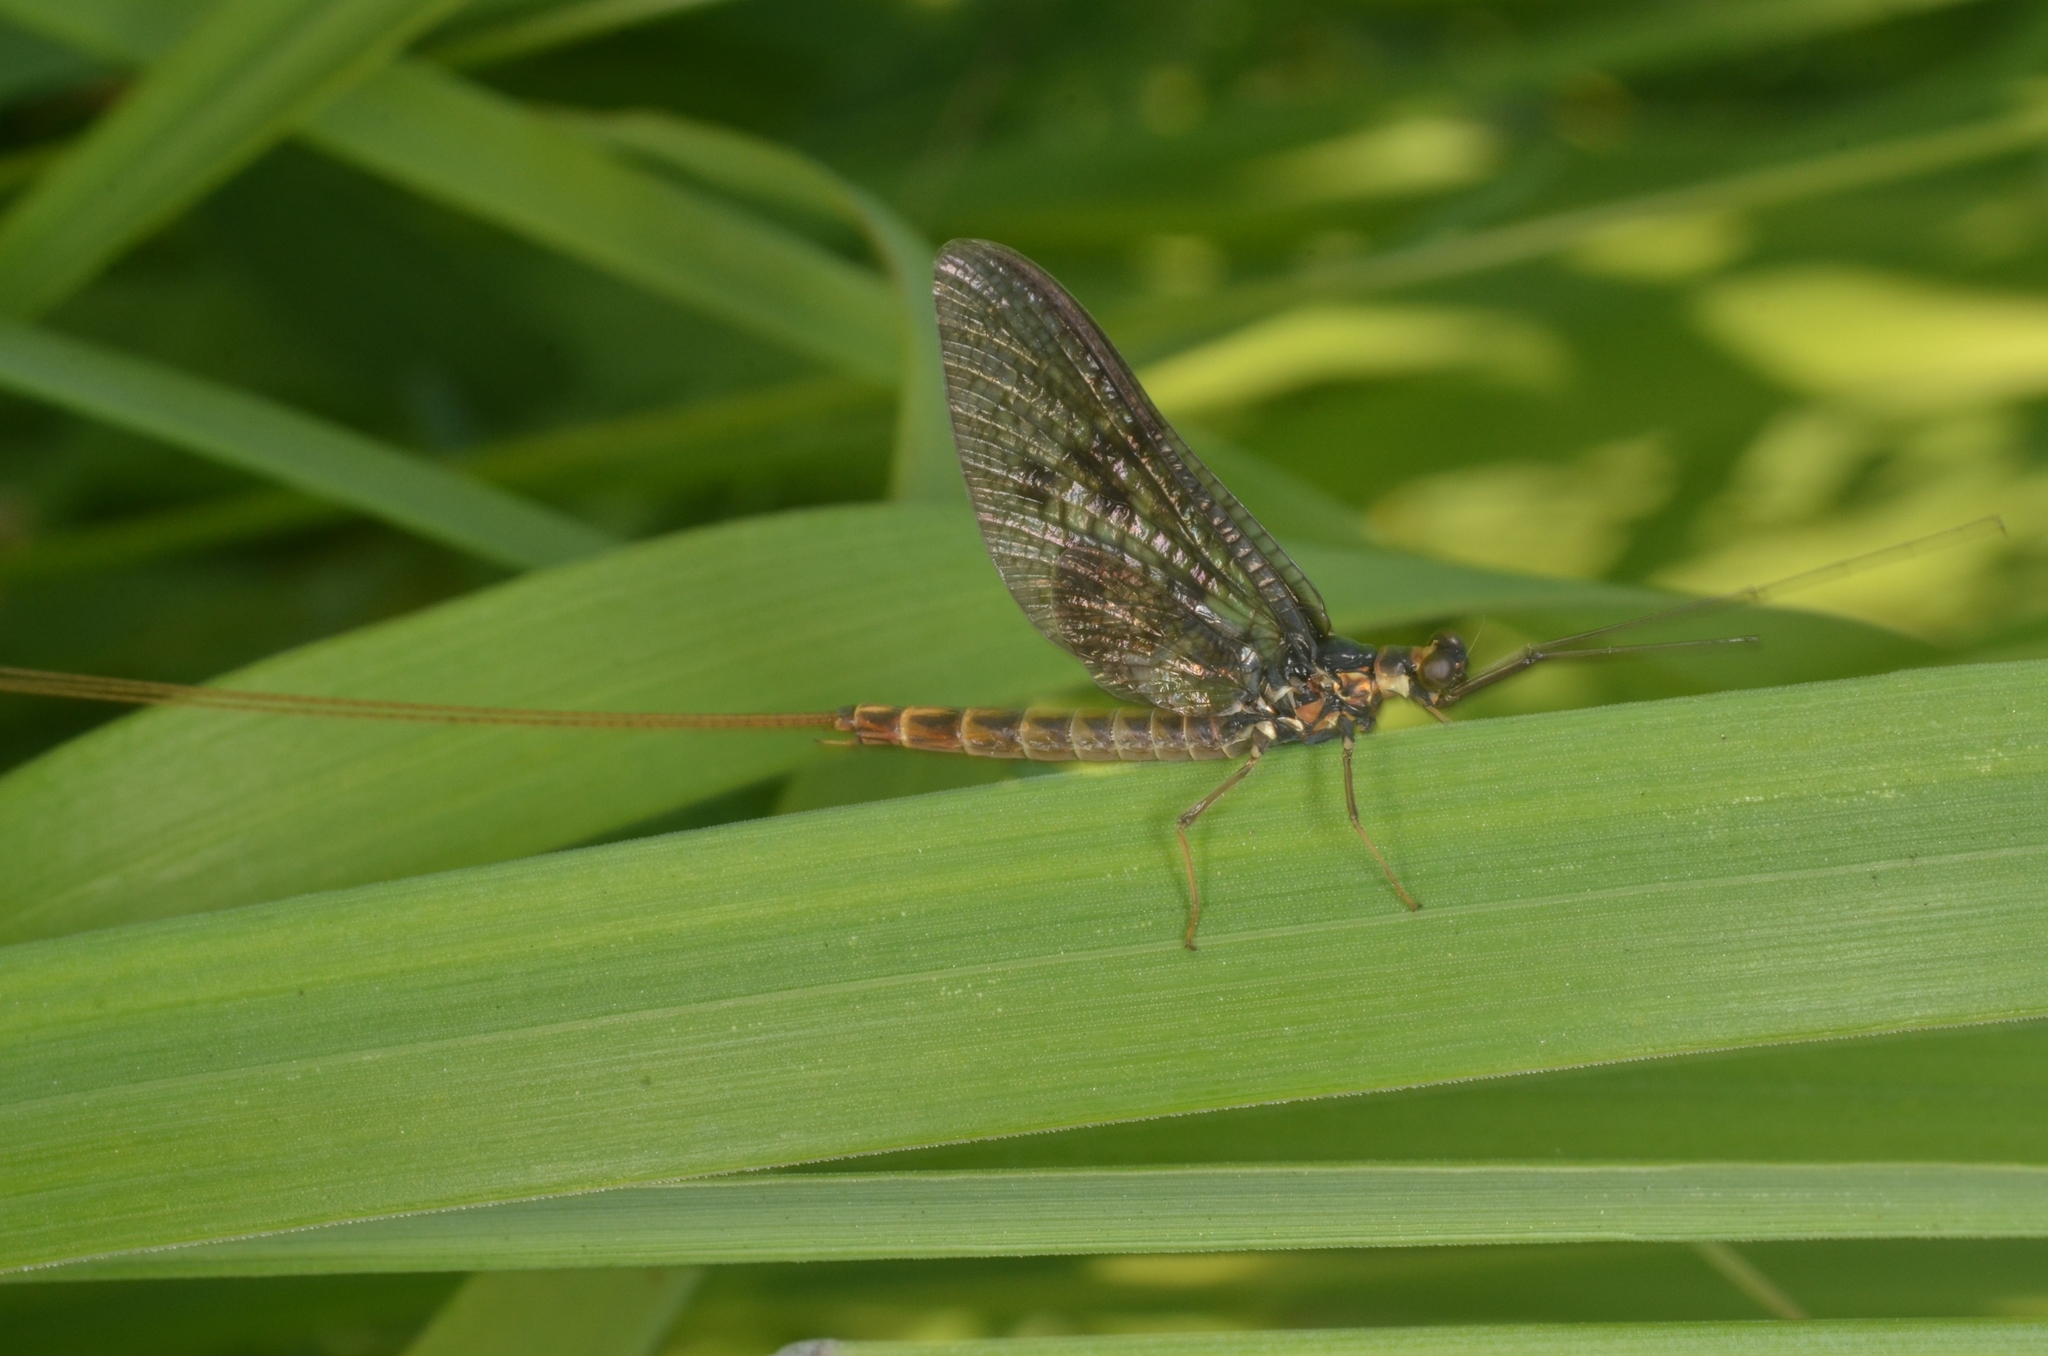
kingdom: Animalia
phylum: Arthropoda
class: Insecta
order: Ephemeroptera
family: Ephemeridae
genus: Ephemera
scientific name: Ephemera vulgata
